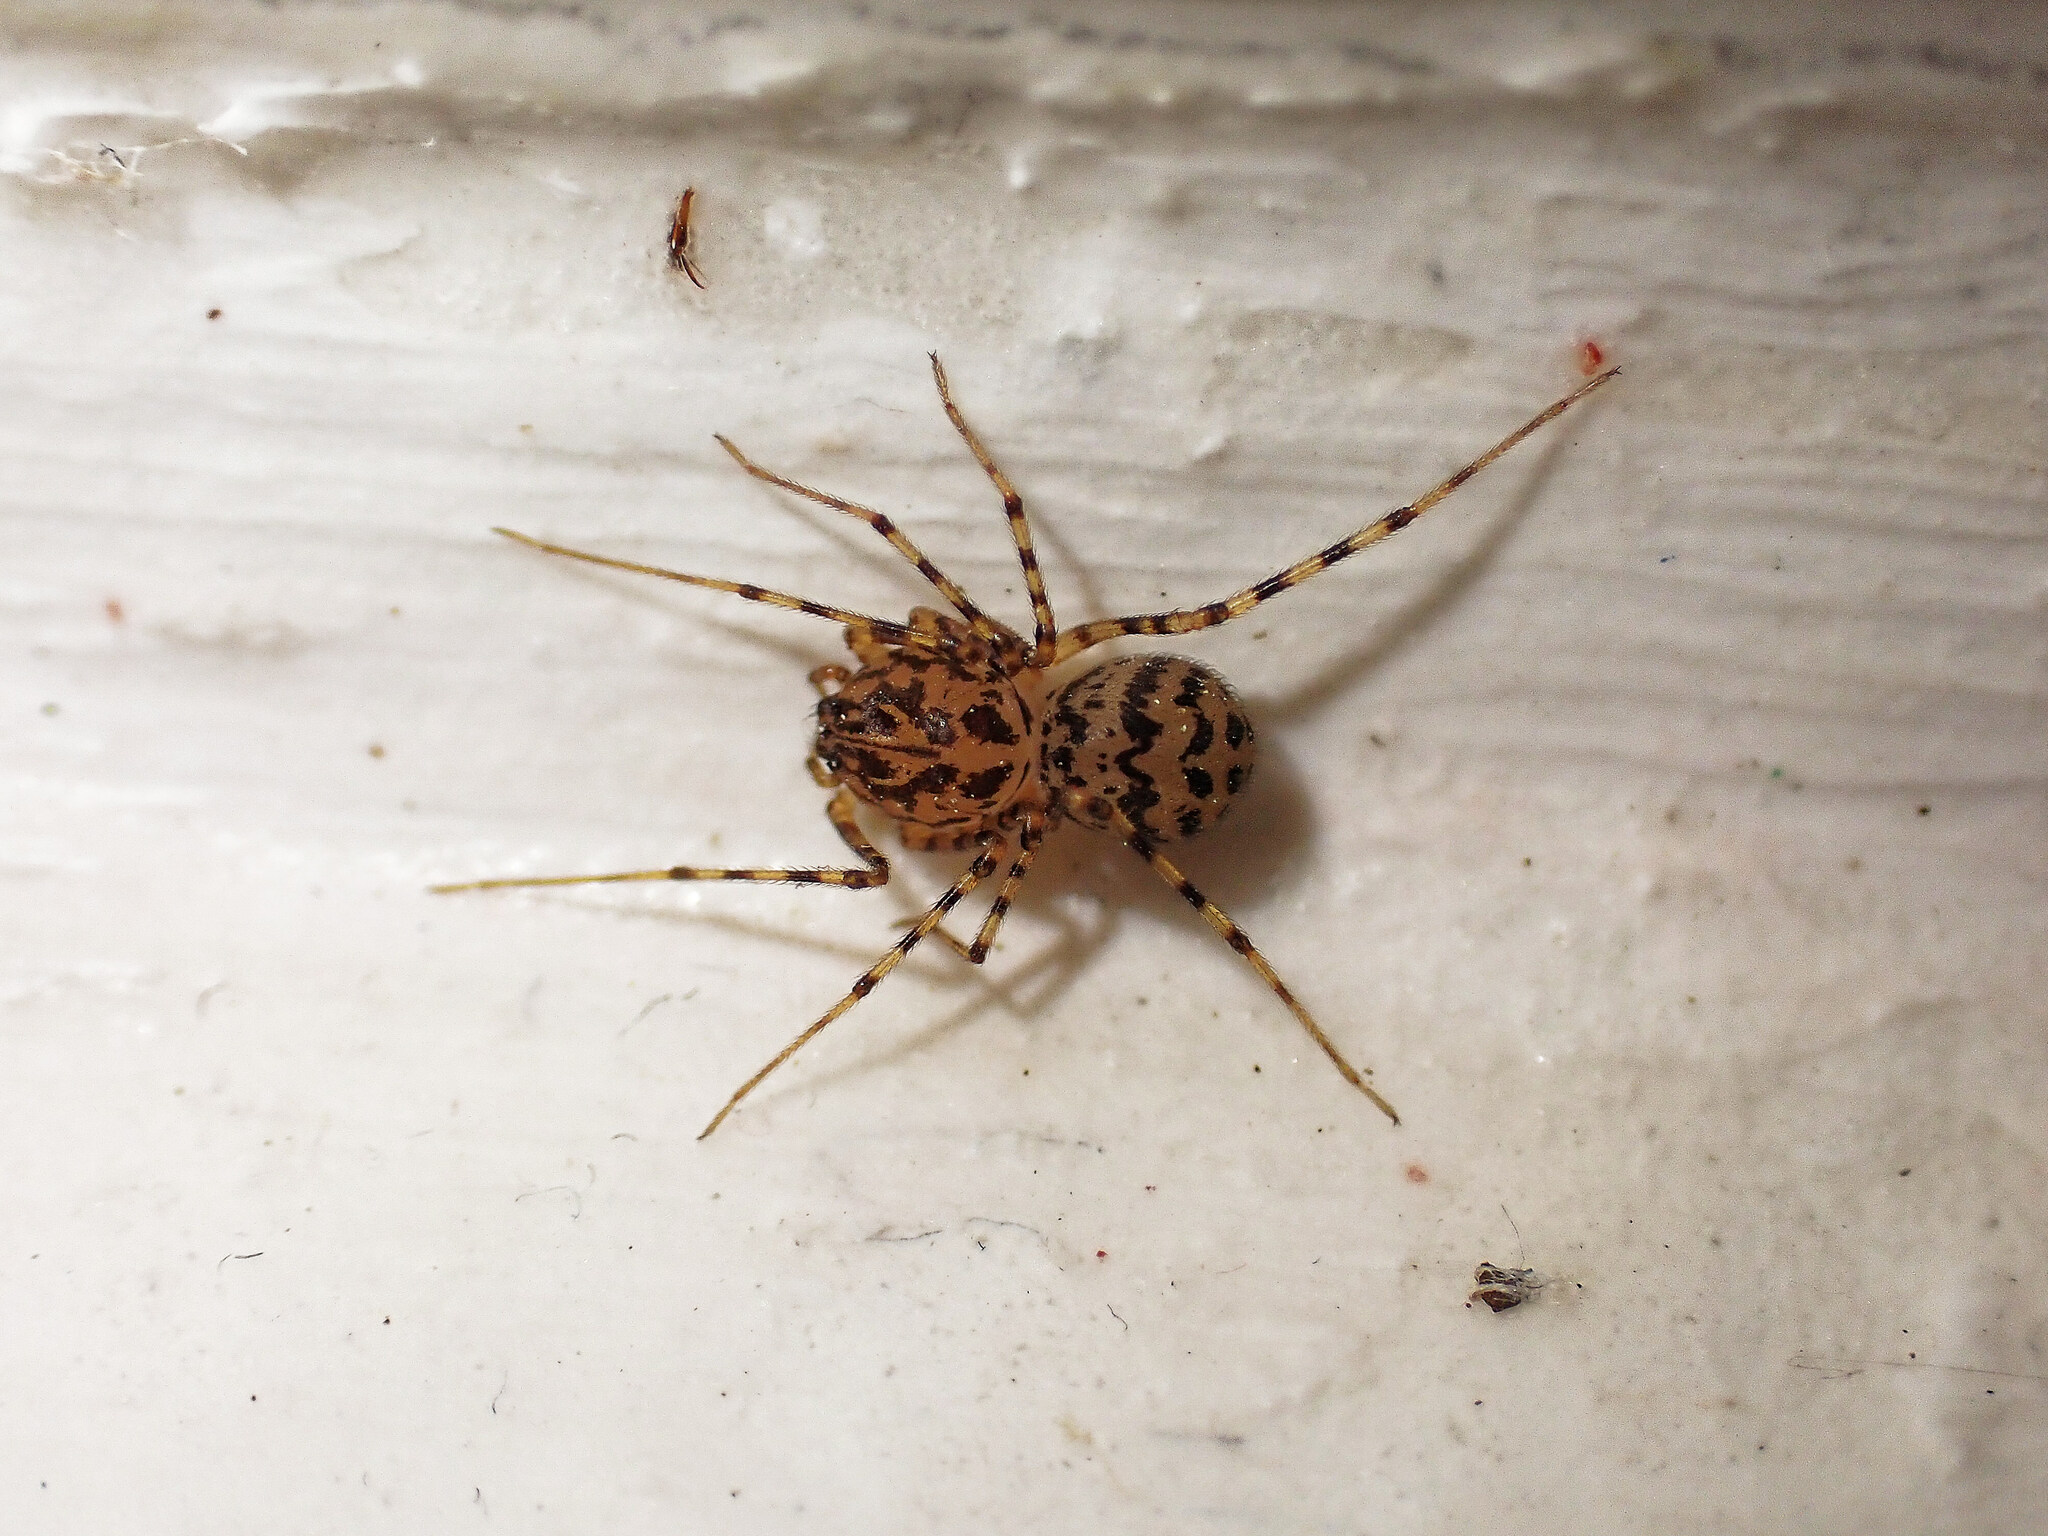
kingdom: Animalia
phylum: Arthropoda
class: Arachnida
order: Araneae
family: Scytodidae
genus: Scytodes
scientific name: Scytodes thoracica
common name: Spitting spider
